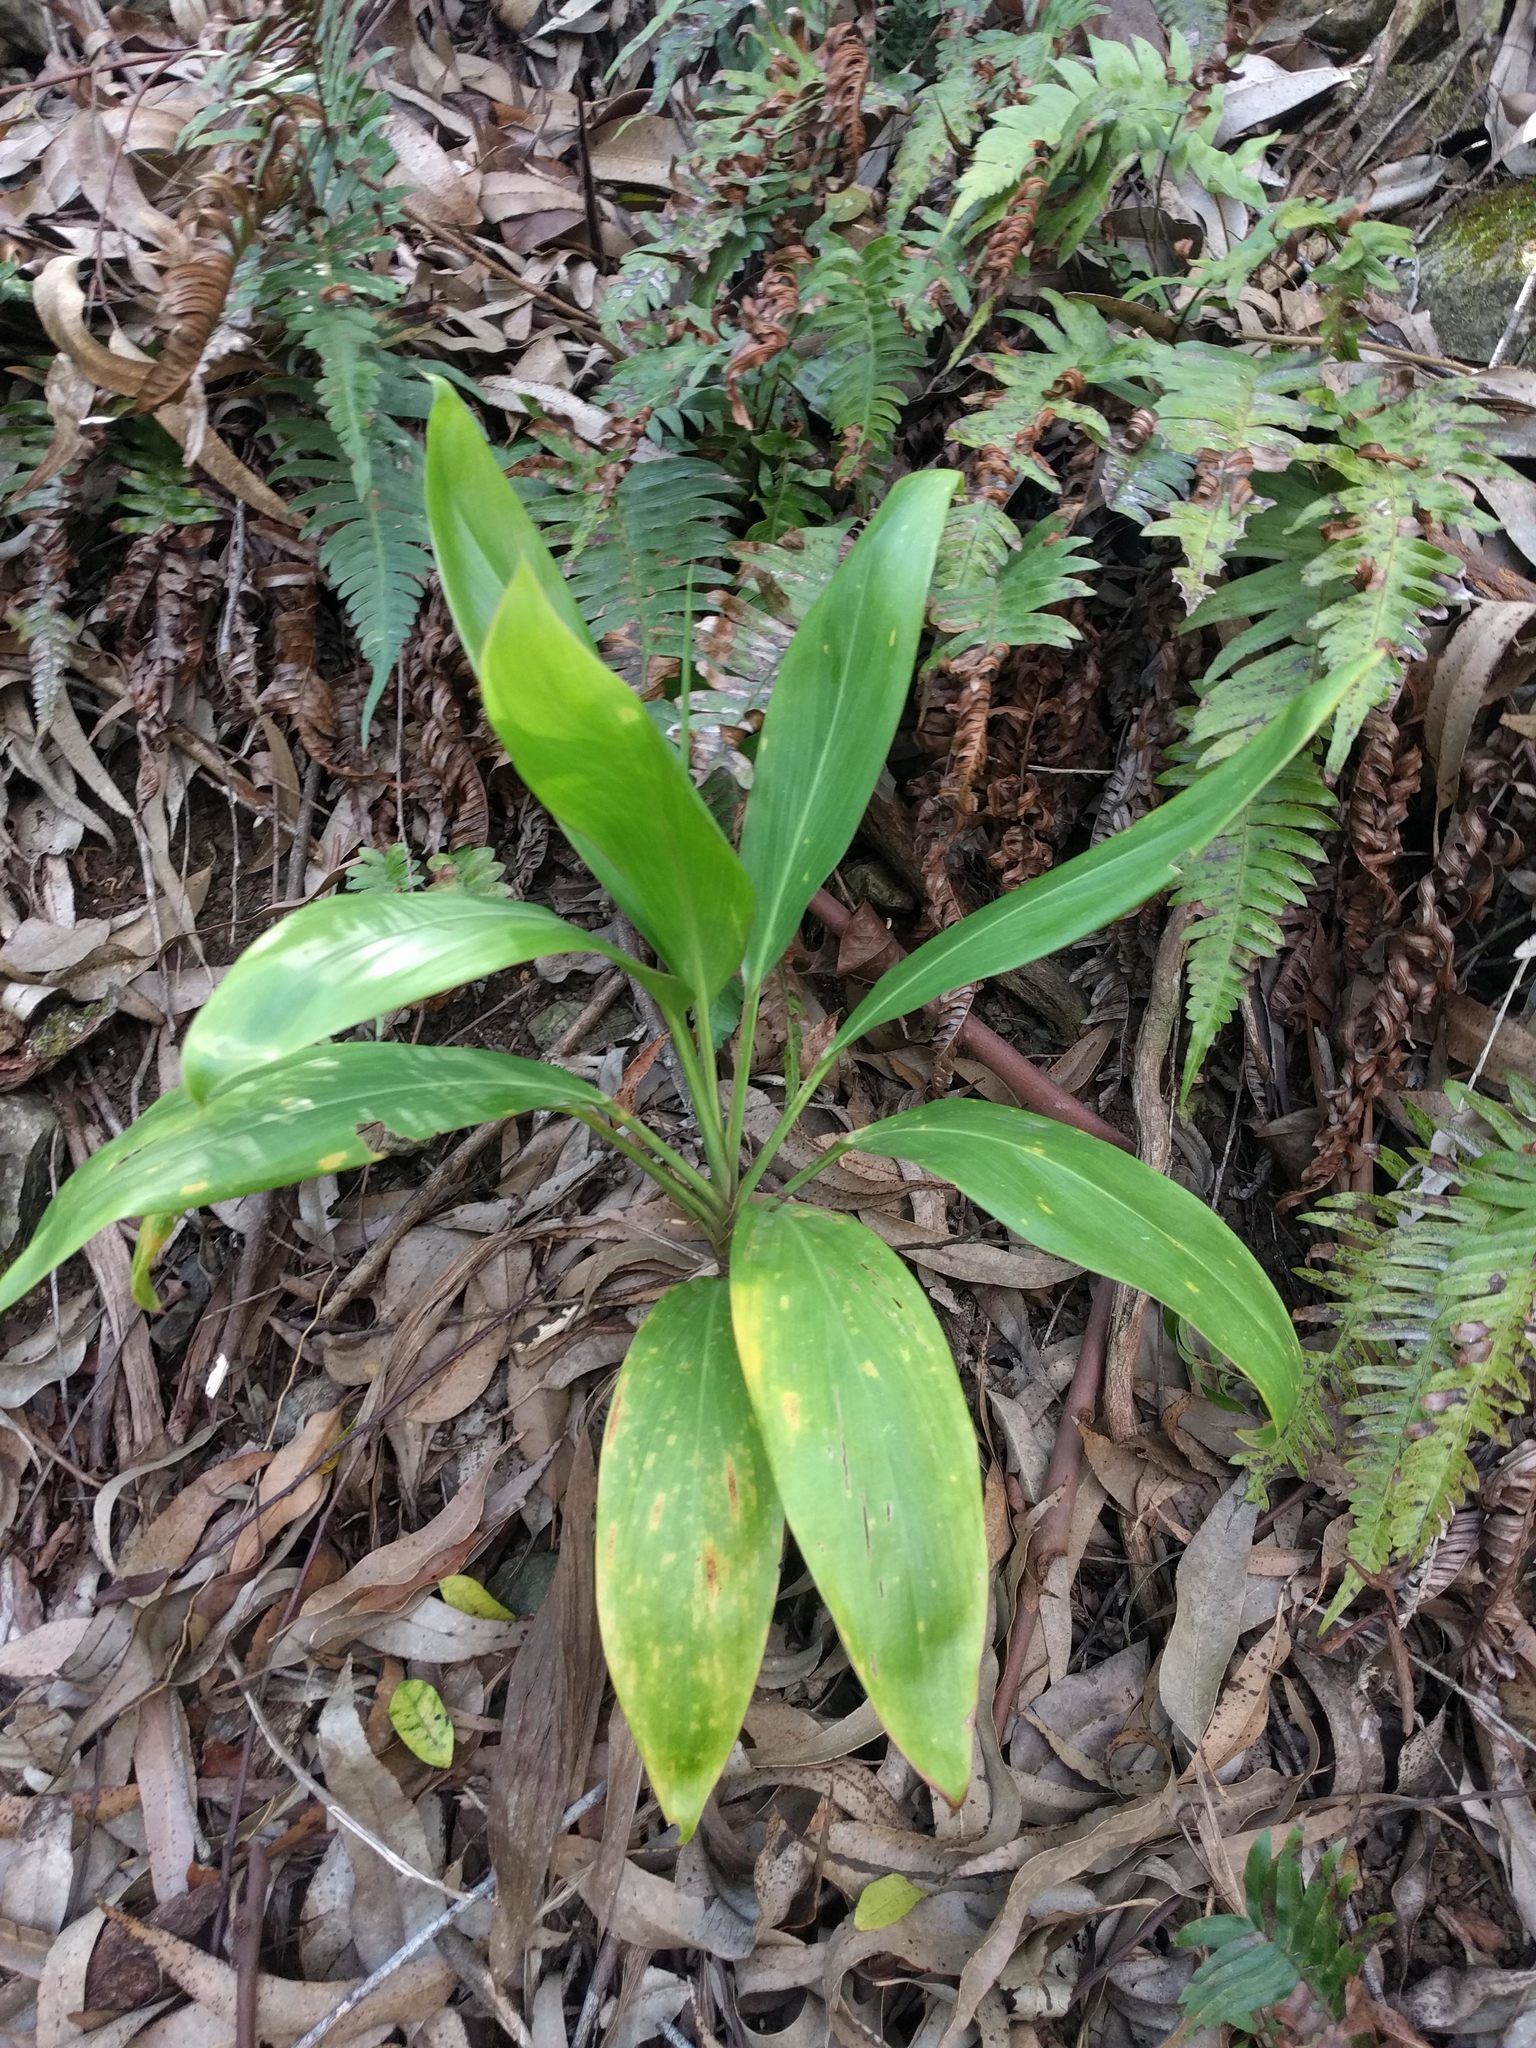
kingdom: Plantae
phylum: Tracheophyta
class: Liliopsida
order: Asparagales
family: Asparagaceae
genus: Cordyline
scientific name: Cordyline fruticosa
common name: Good-luck-plant
